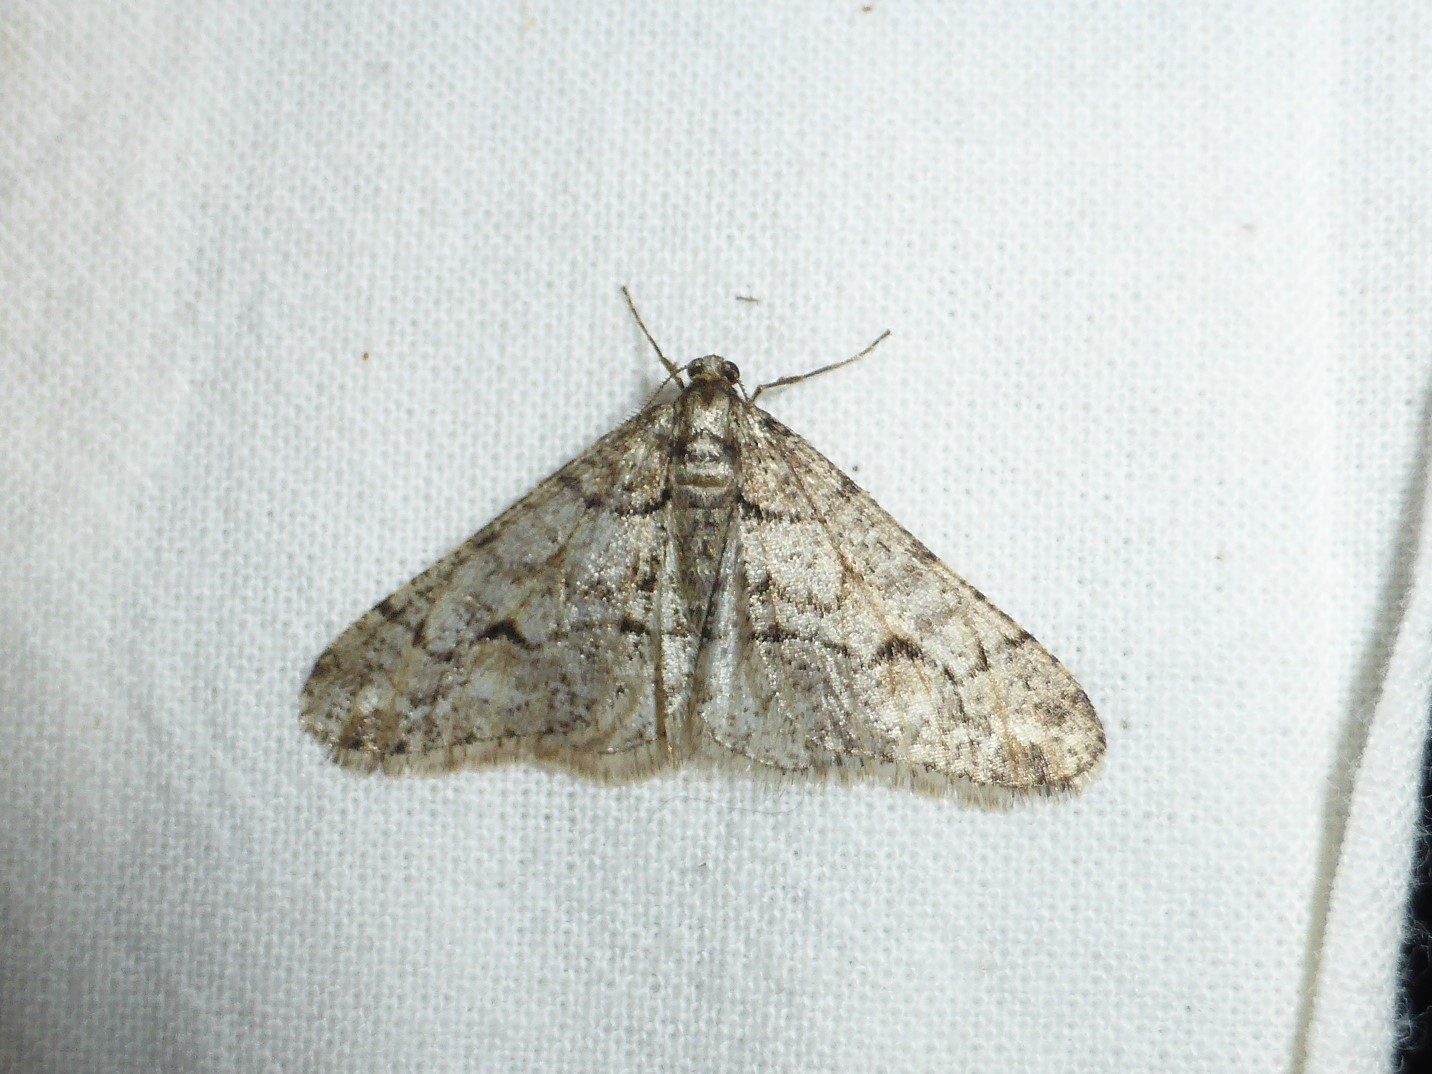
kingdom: Animalia
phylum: Arthropoda
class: Insecta
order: Lepidoptera
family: Geometridae
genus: Agriopis
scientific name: Agriopis leucophaearia
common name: Spring usher
